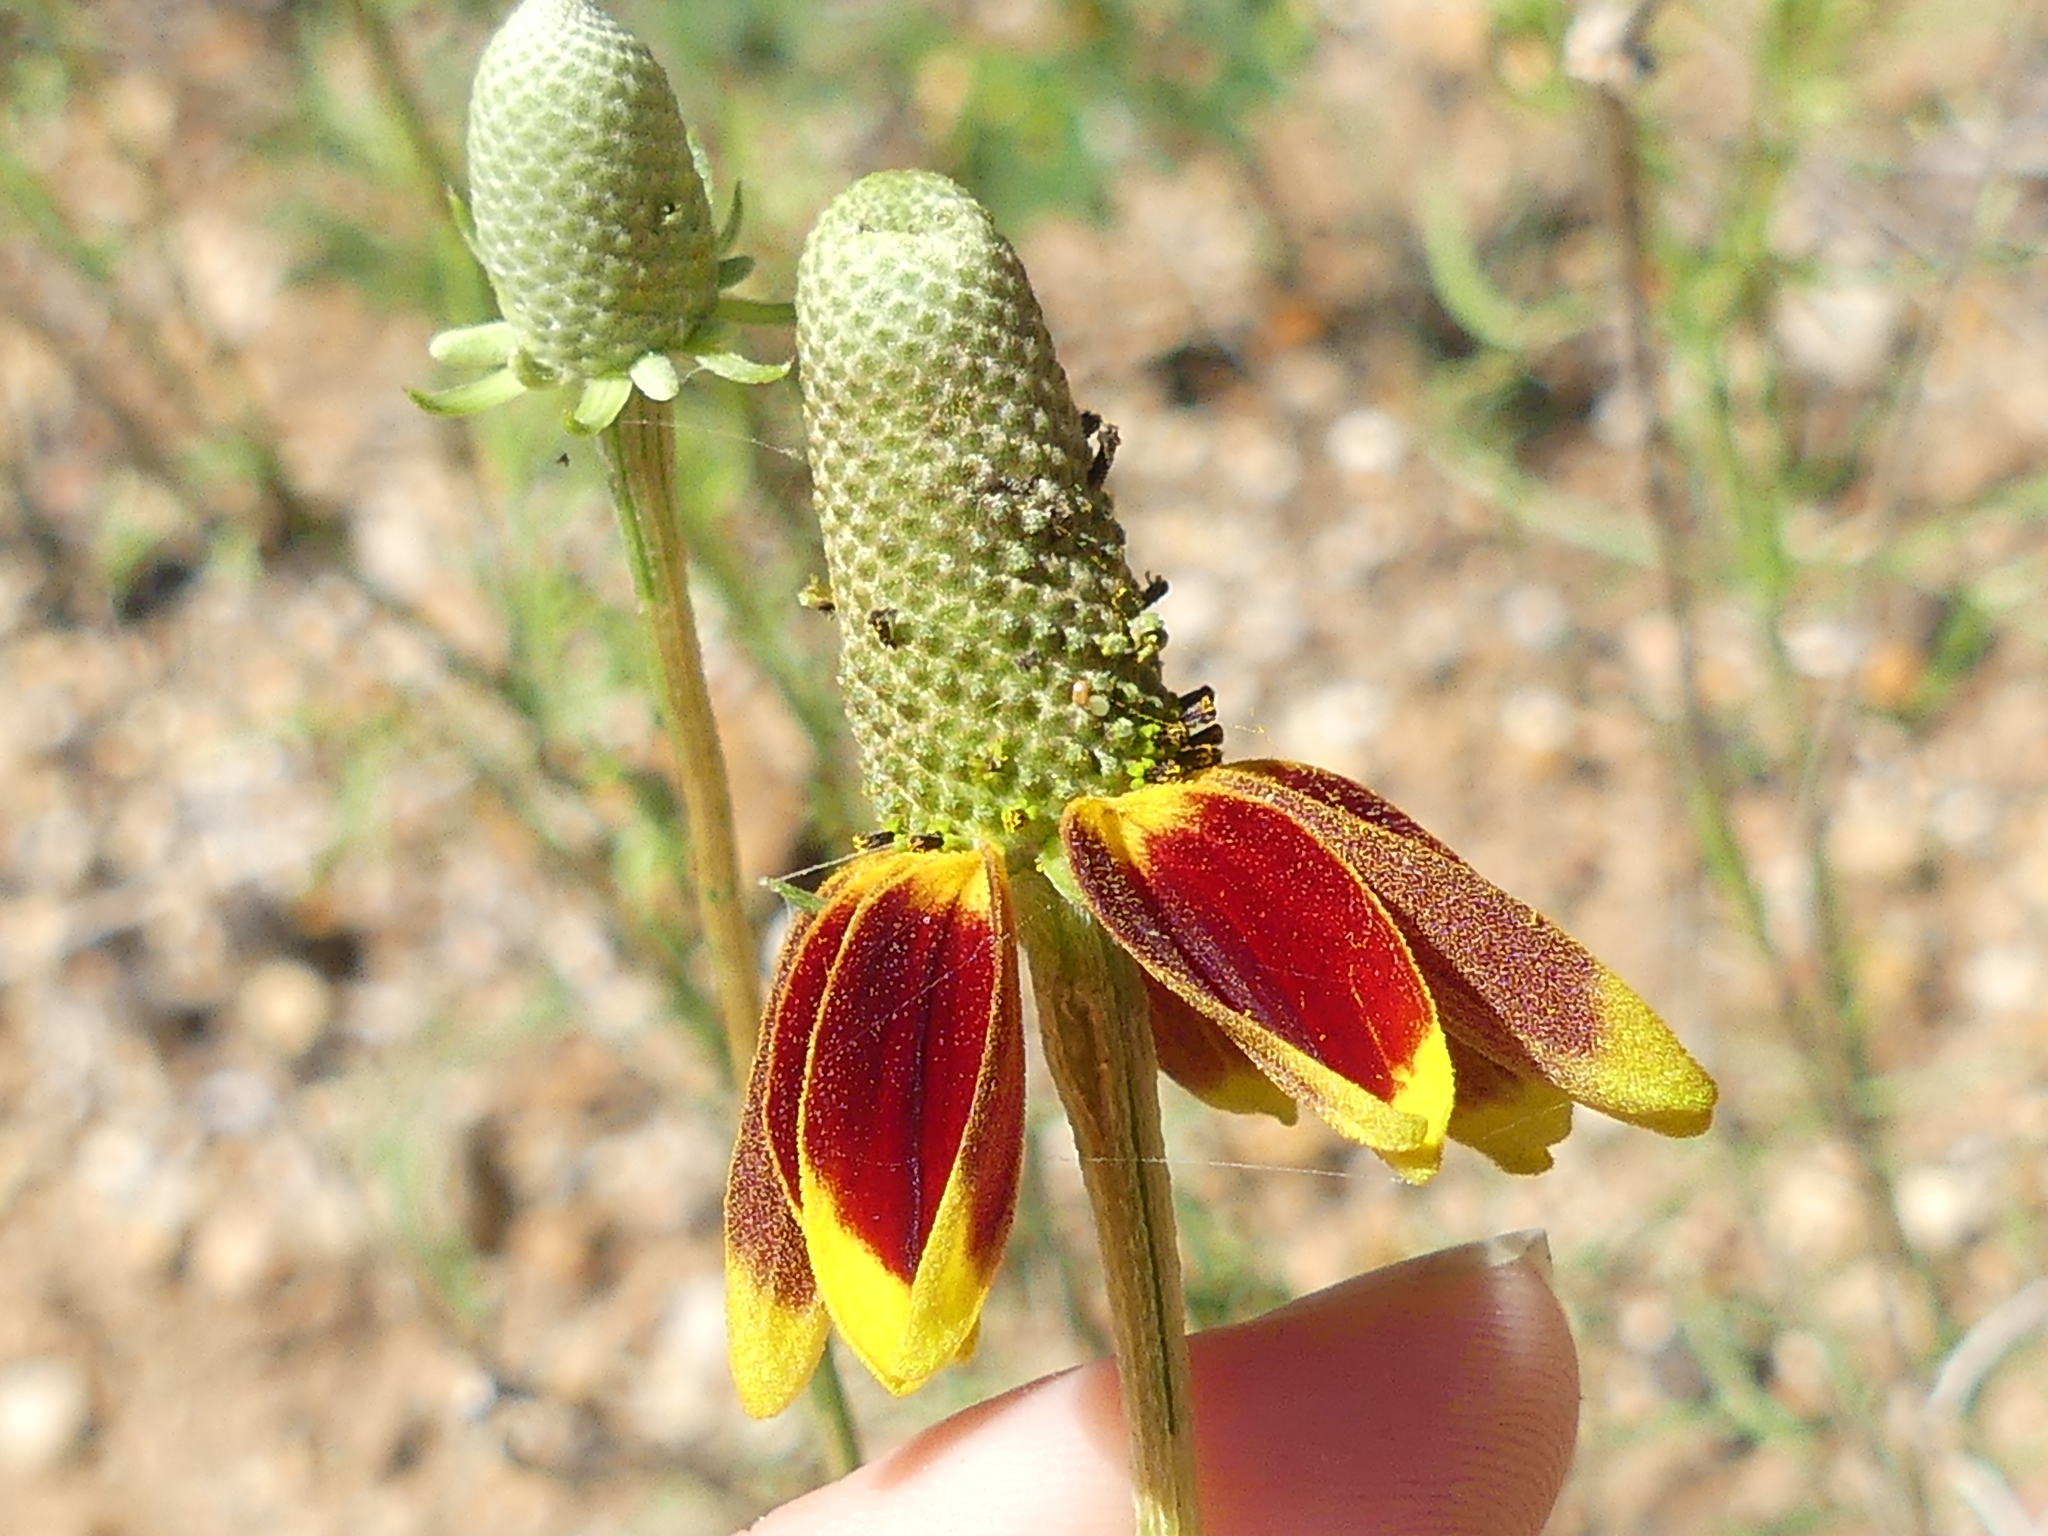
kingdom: Plantae
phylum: Tracheophyta
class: Magnoliopsida
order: Asterales
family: Asteraceae
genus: Ratibida
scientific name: Ratibida columnifera
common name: Prairie coneflower
